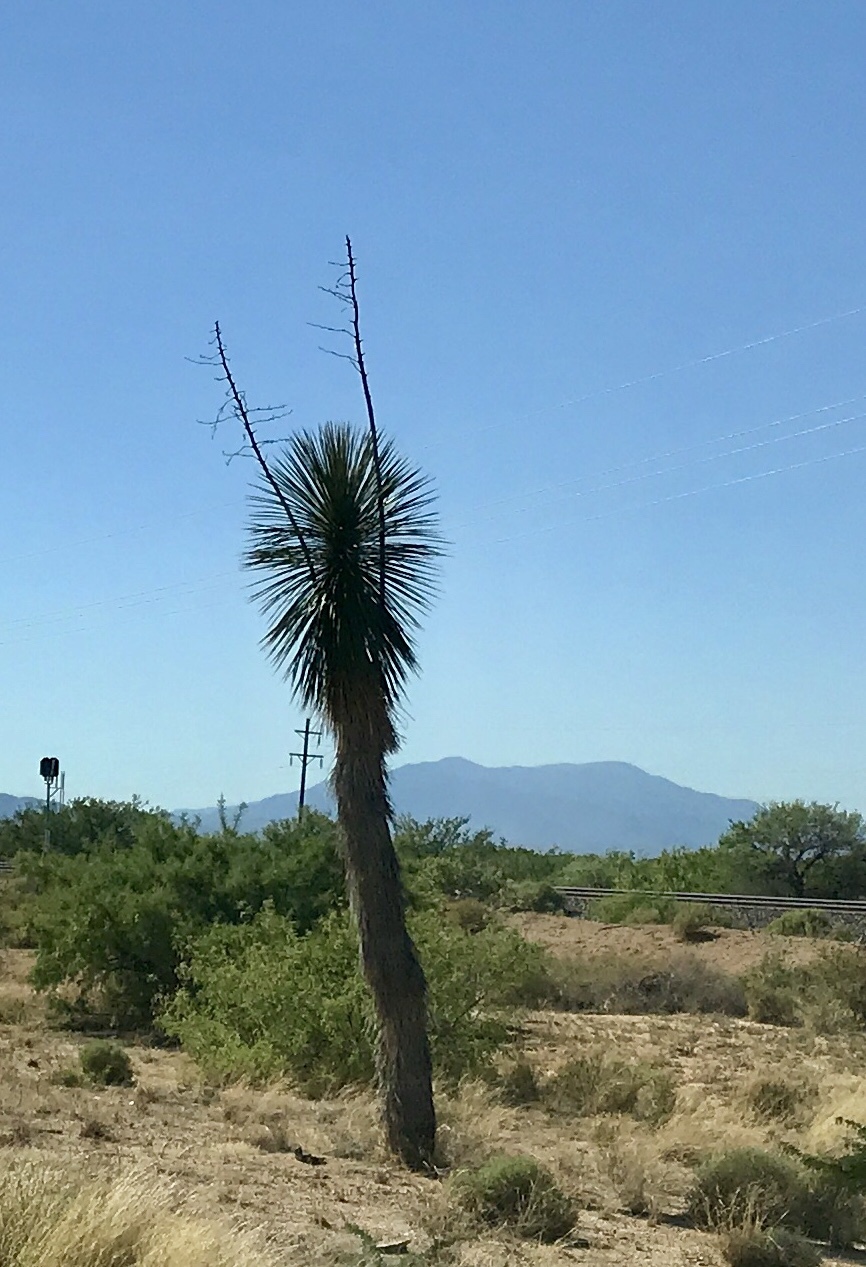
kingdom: Plantae
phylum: Tracheophyta
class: Liliopsida
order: Asparagales
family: Asparagaceae
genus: Yucca
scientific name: Yucca elata
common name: Palmella
